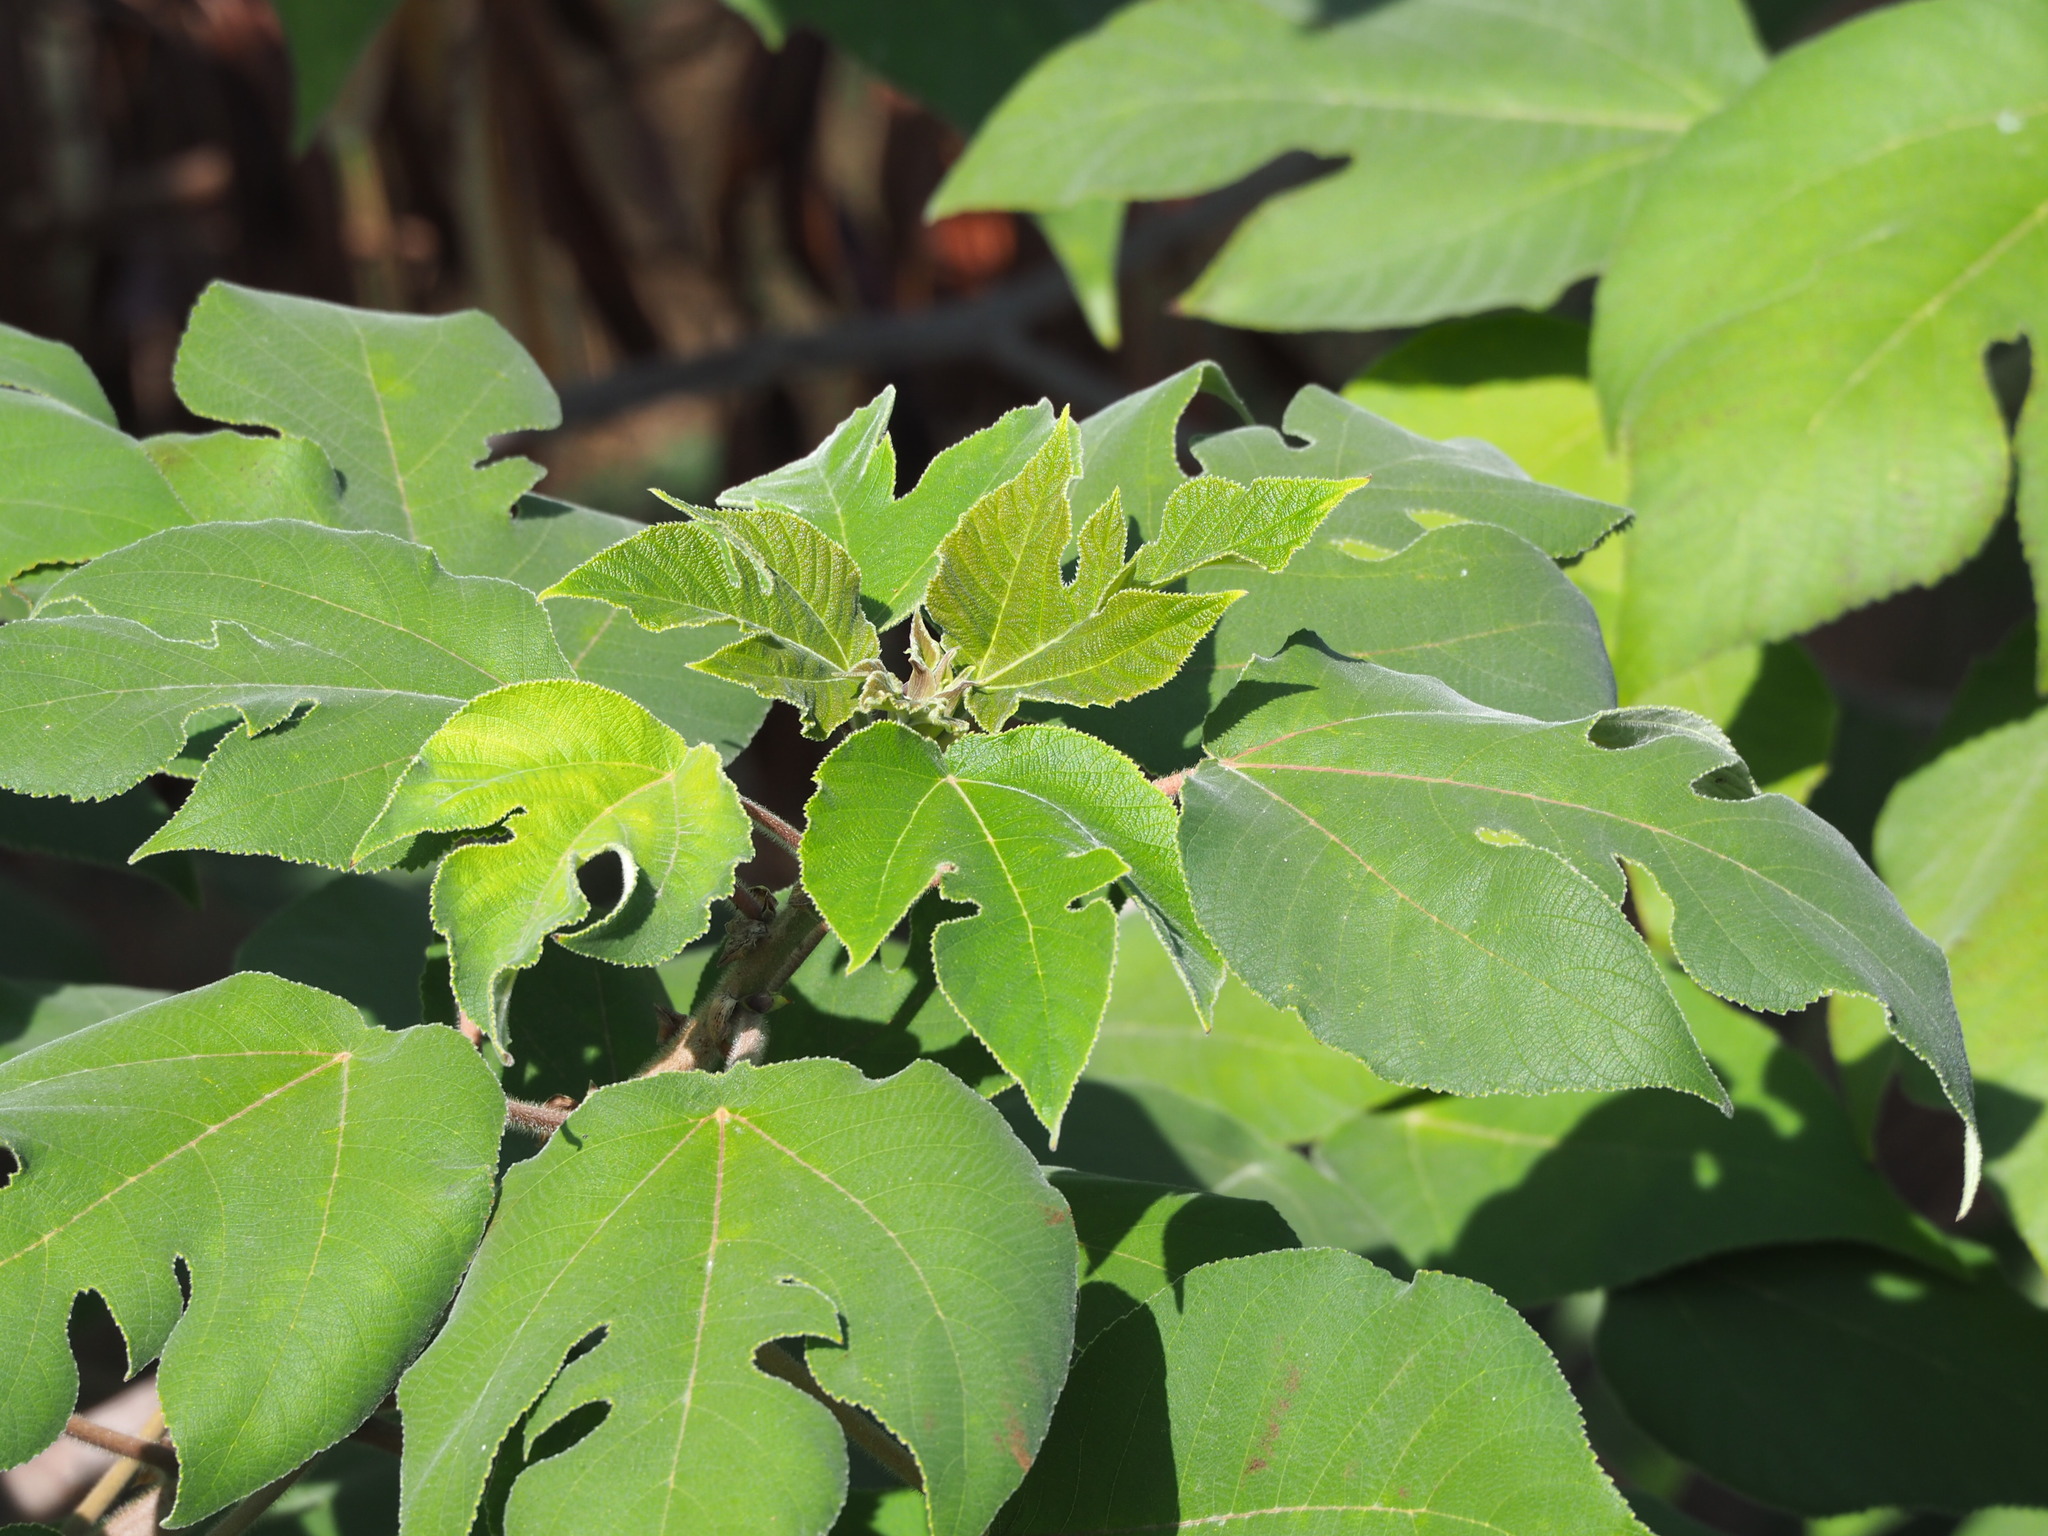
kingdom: Plantae
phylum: Tracheophyta
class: Magnoliopsida
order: Rosales
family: Moraceae
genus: Broussonetia
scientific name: Broussonetia papyrifera
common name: Paper mulberry
